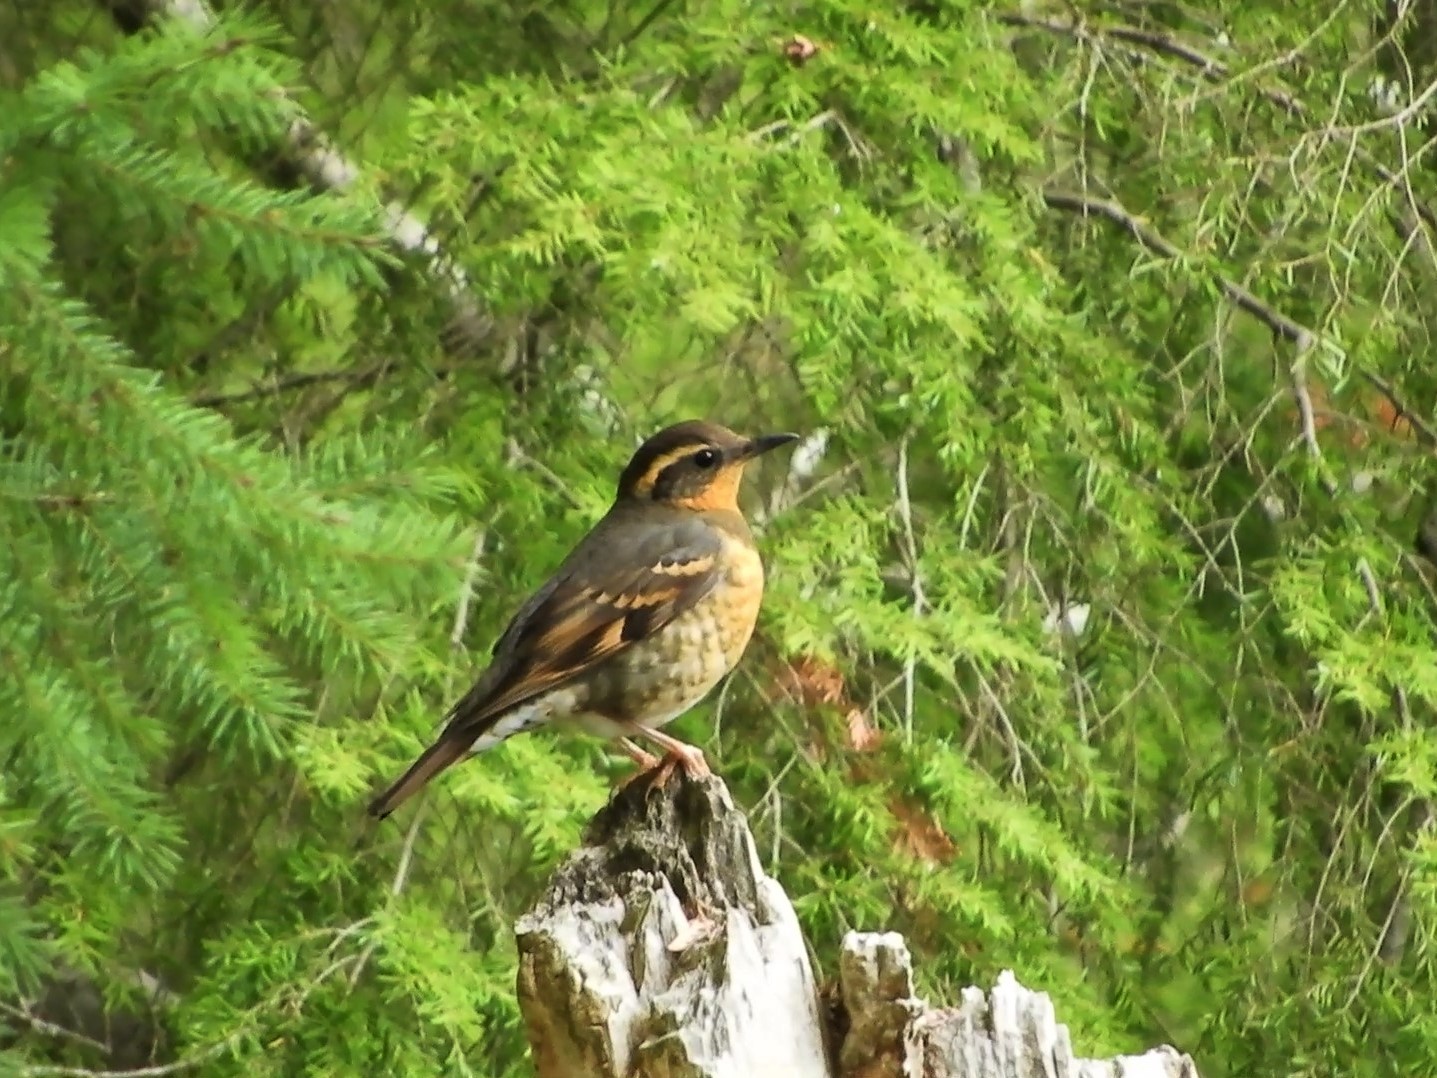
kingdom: Animalia
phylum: Chordata
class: Aves
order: Passeriformes
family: Turdidae
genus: Ixoreus
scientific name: Ixoreus naevius
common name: Varied thrush
